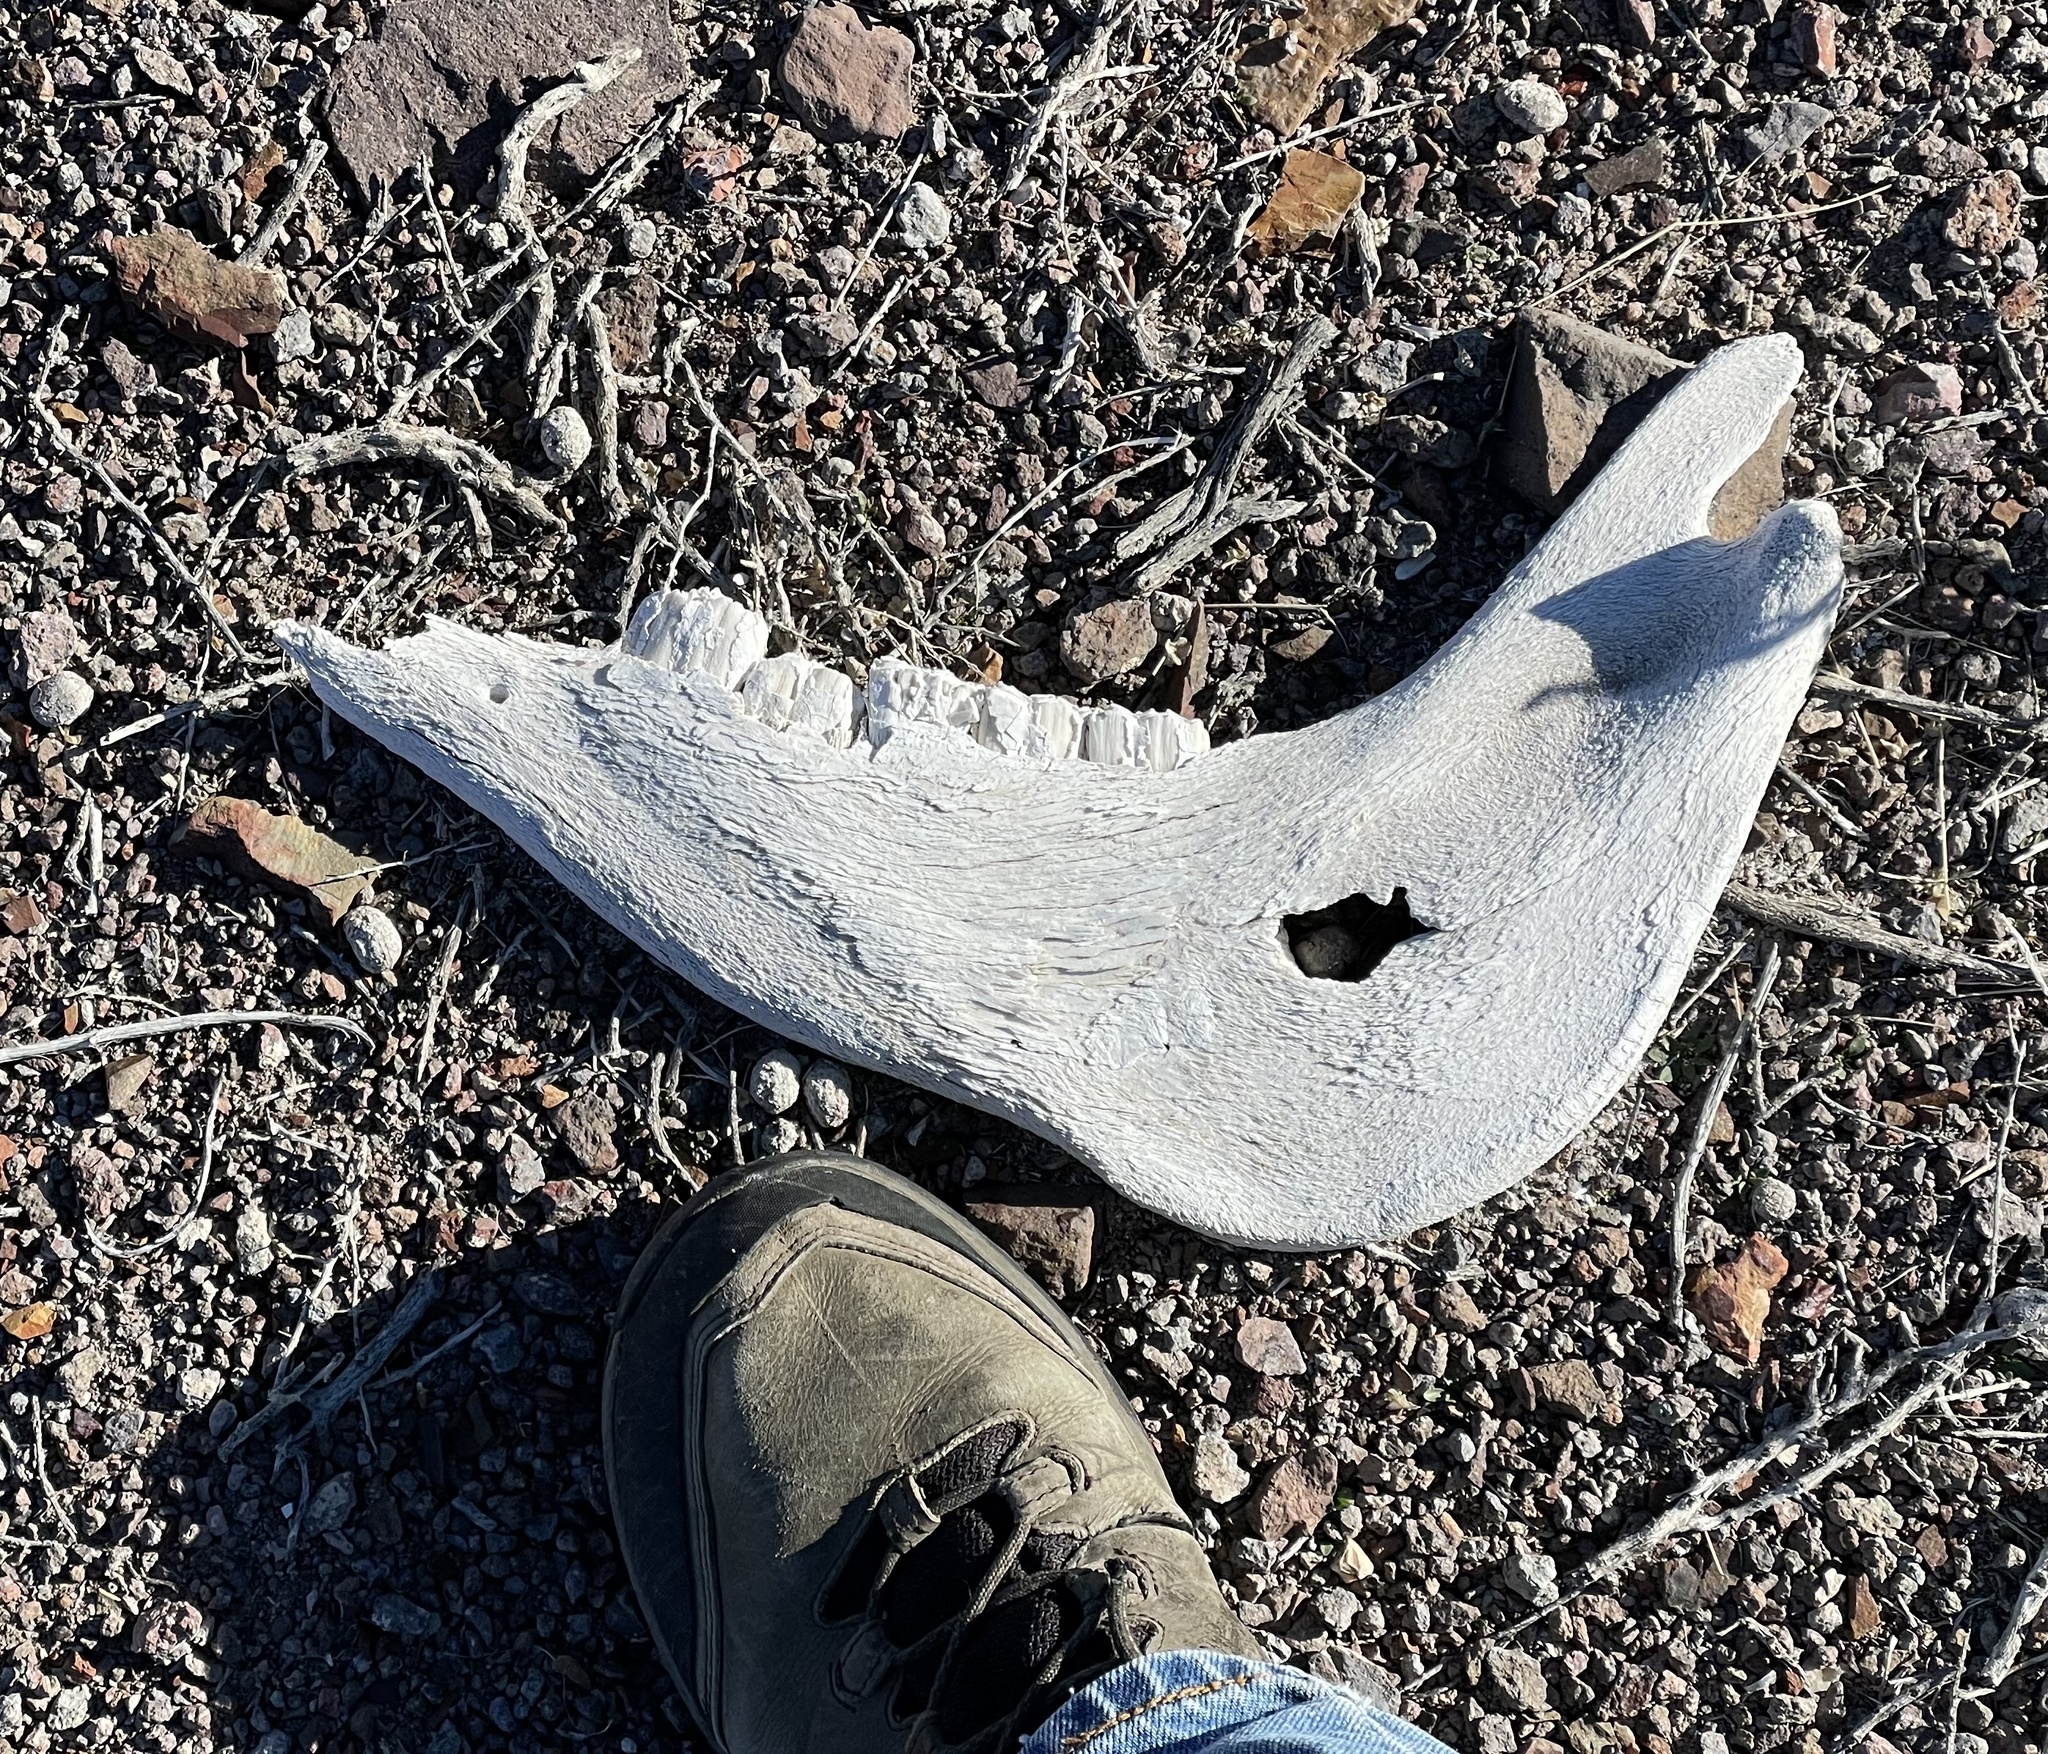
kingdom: Animalia
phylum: Chordata
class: Mammalia
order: Perissodactyla
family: Equidae
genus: Equus
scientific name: Equus asinus
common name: Ass
